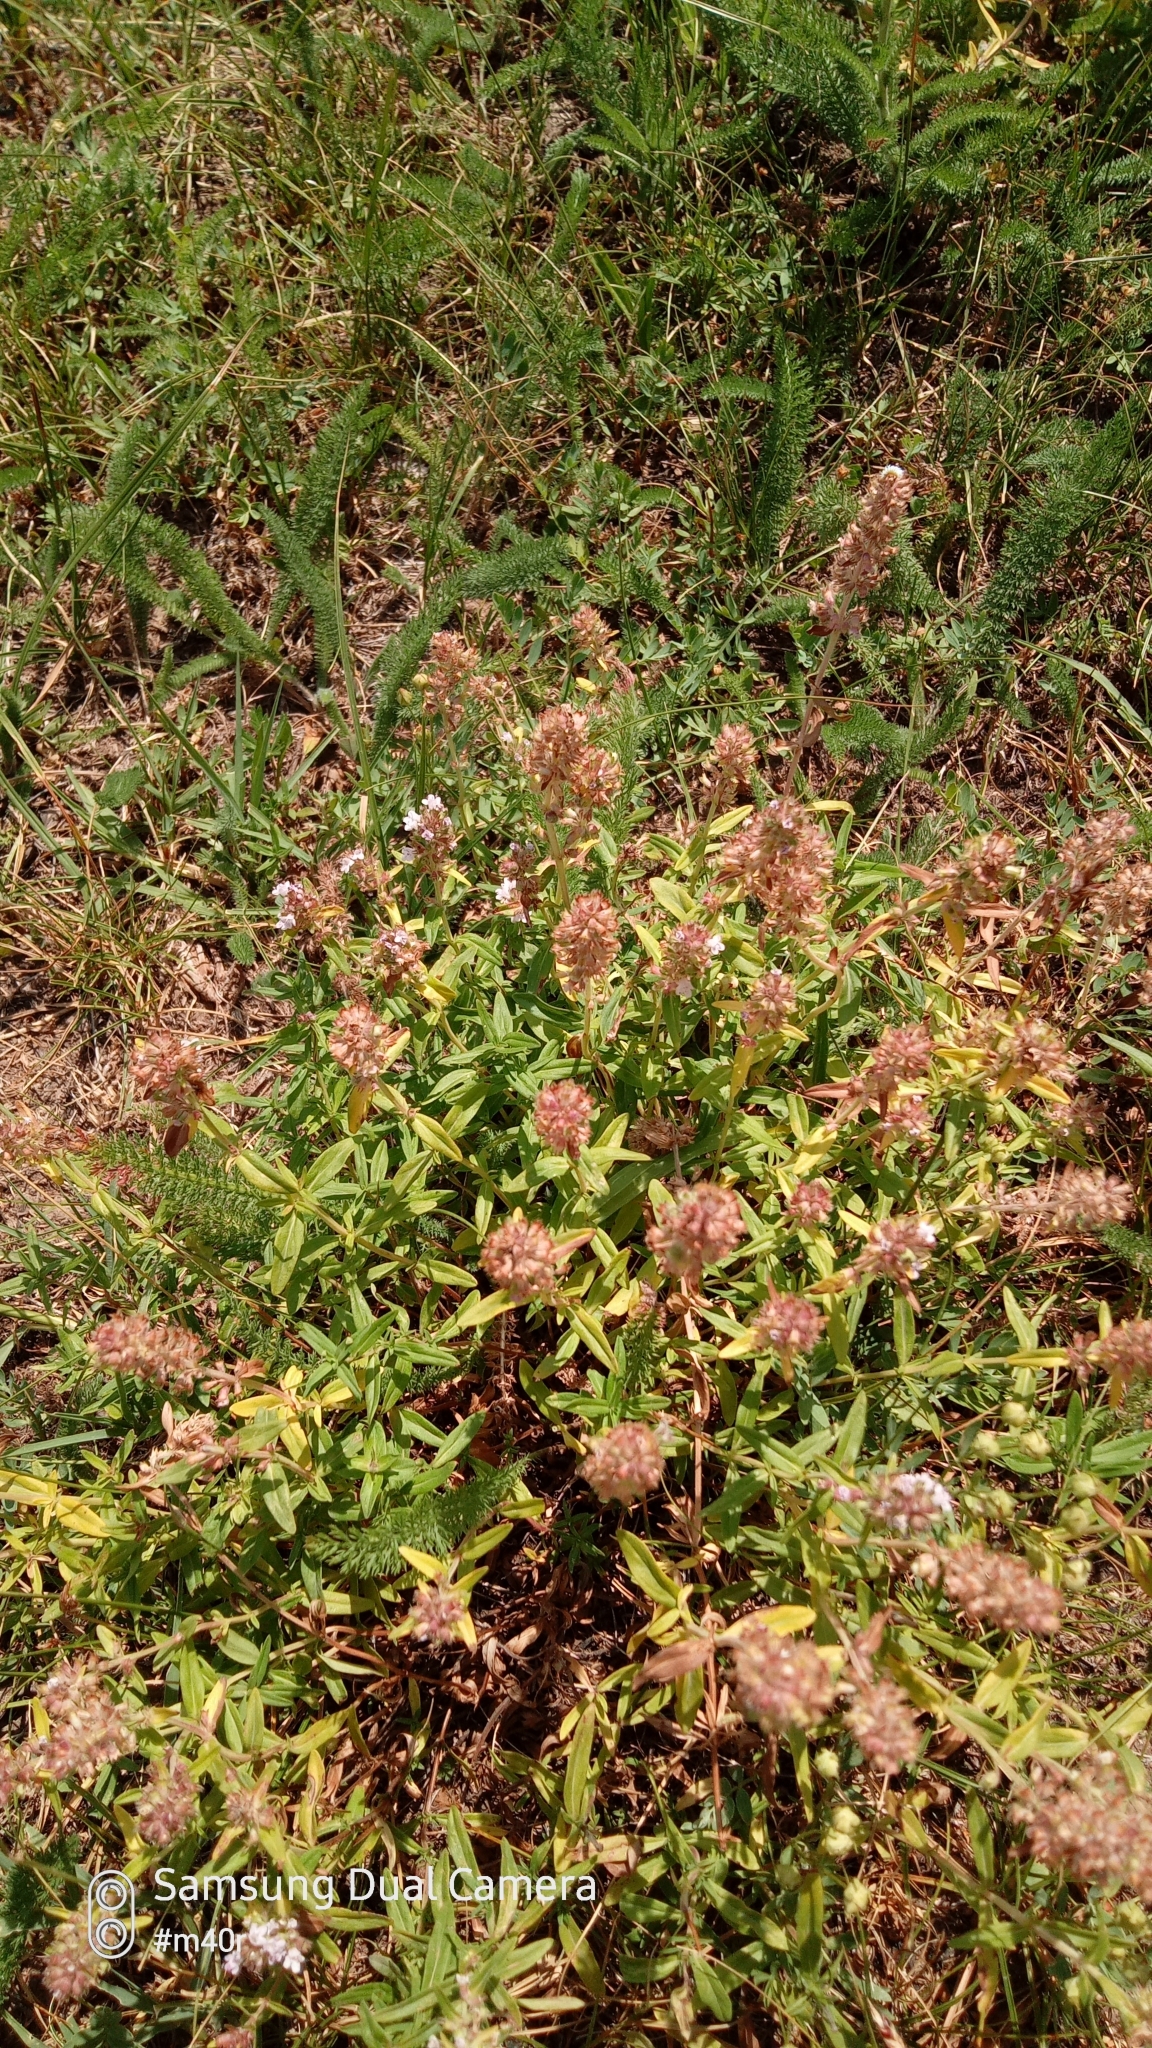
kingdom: Plantae
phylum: Tracheophyta
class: Magnoliopsida
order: Lamiales
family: Lamiaceae
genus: Thymus
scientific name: Thymus pannonicus
